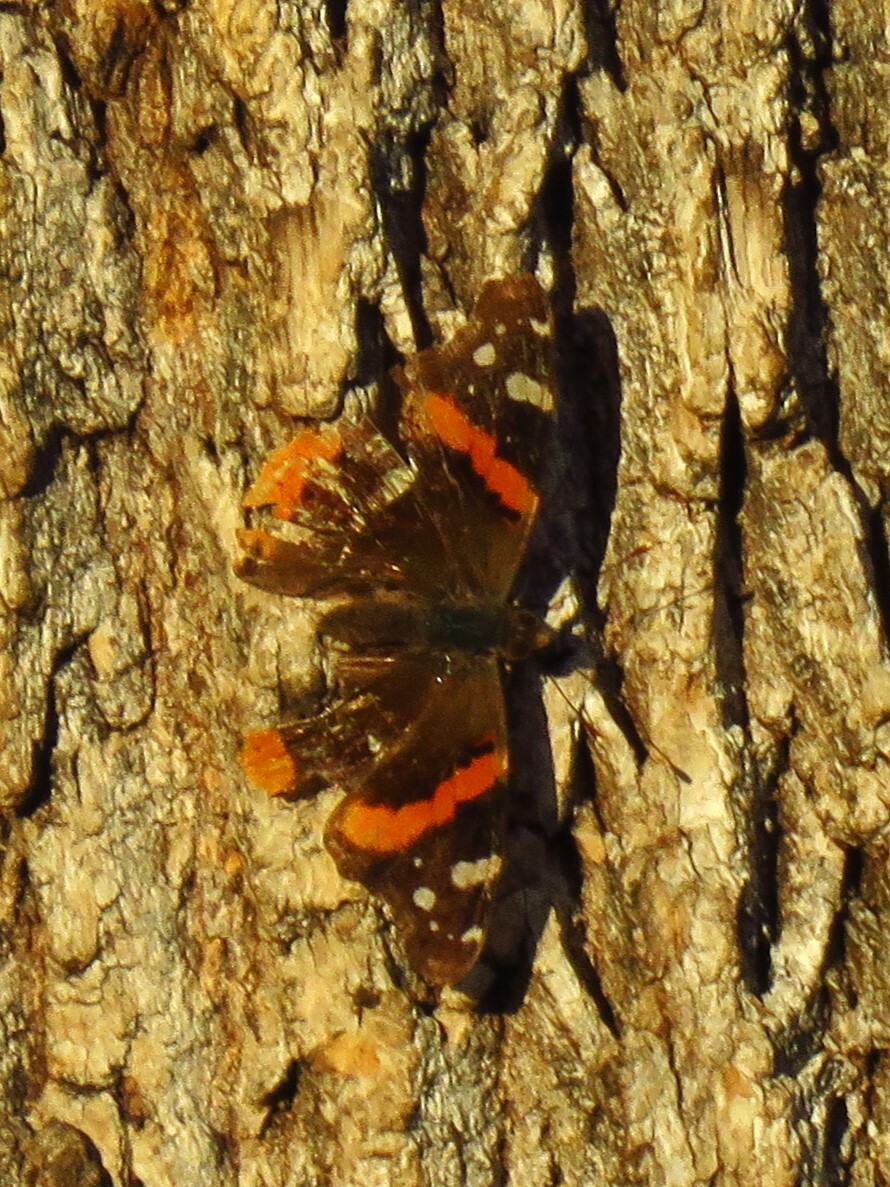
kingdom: Animalia
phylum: Arthropoda
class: Insecta
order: Lepidoptera
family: Nymphalidae
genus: Vanessa
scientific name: Vanessa atalanta
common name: Red admiral
